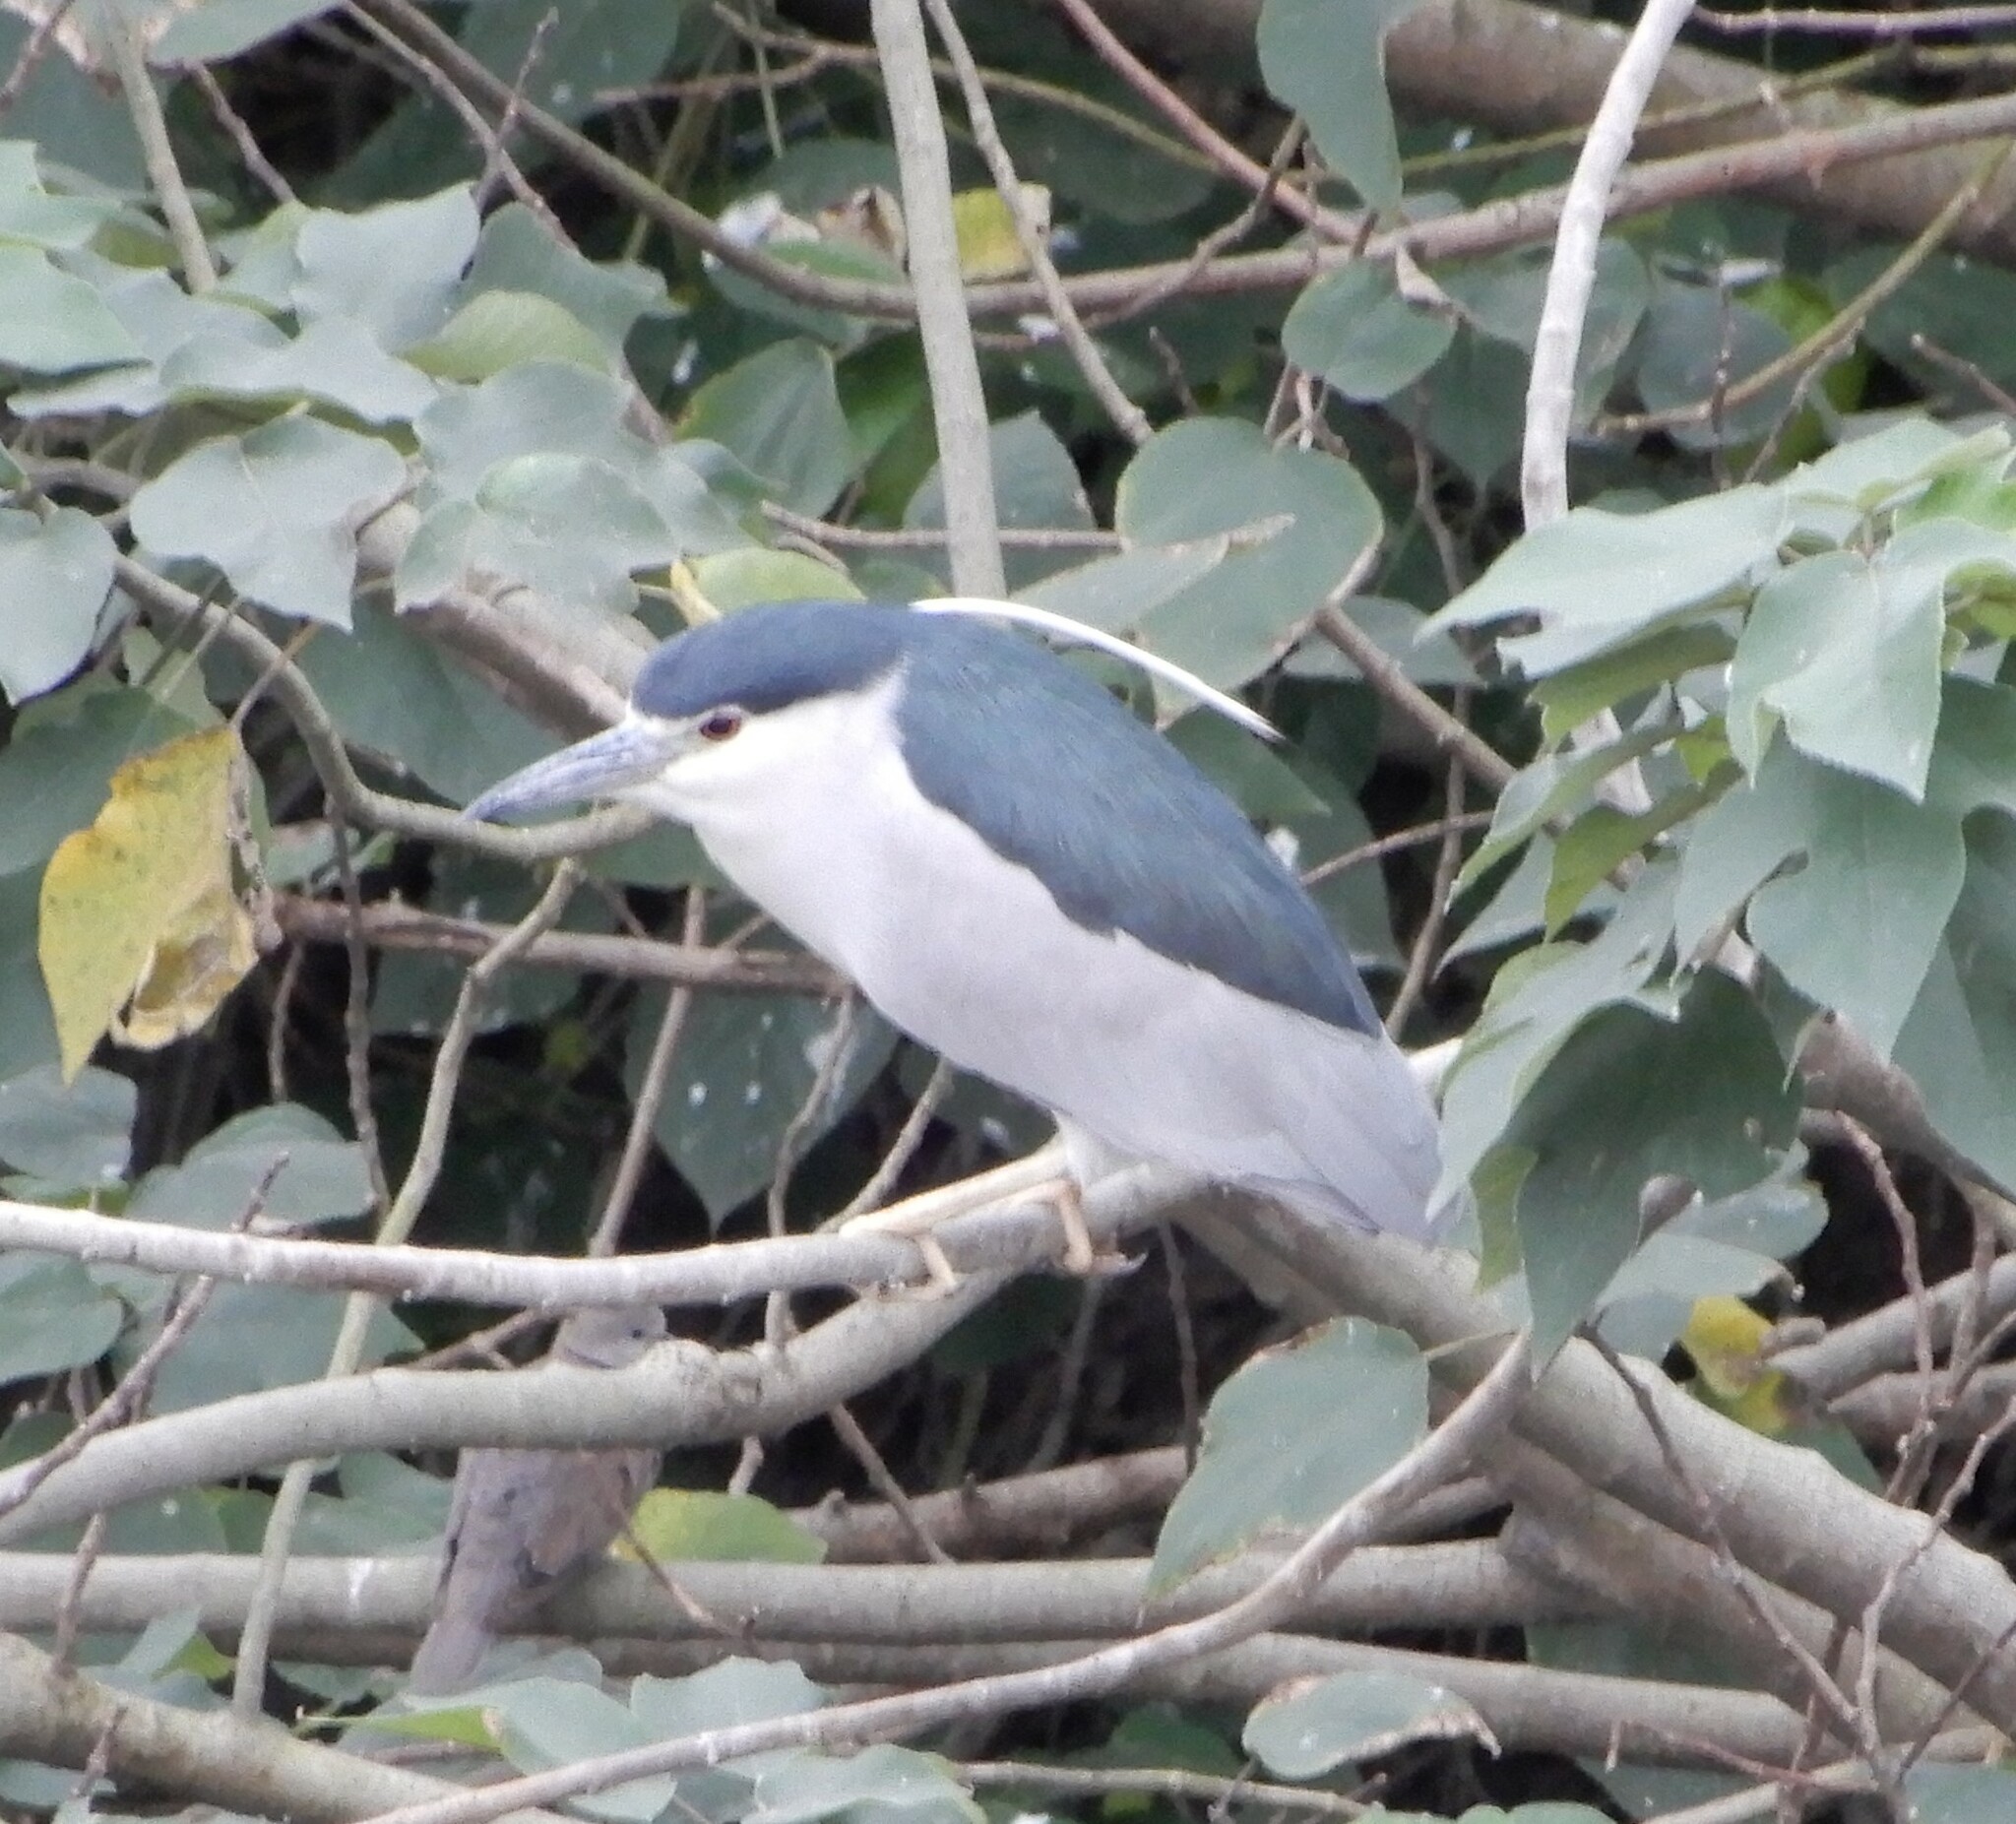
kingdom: Animalia
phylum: Chordata
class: Aves
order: Pelecaniformes
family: Ardeidae
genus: Nycticorax
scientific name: Nycticorax nycticorax
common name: Black-crowned night heron
